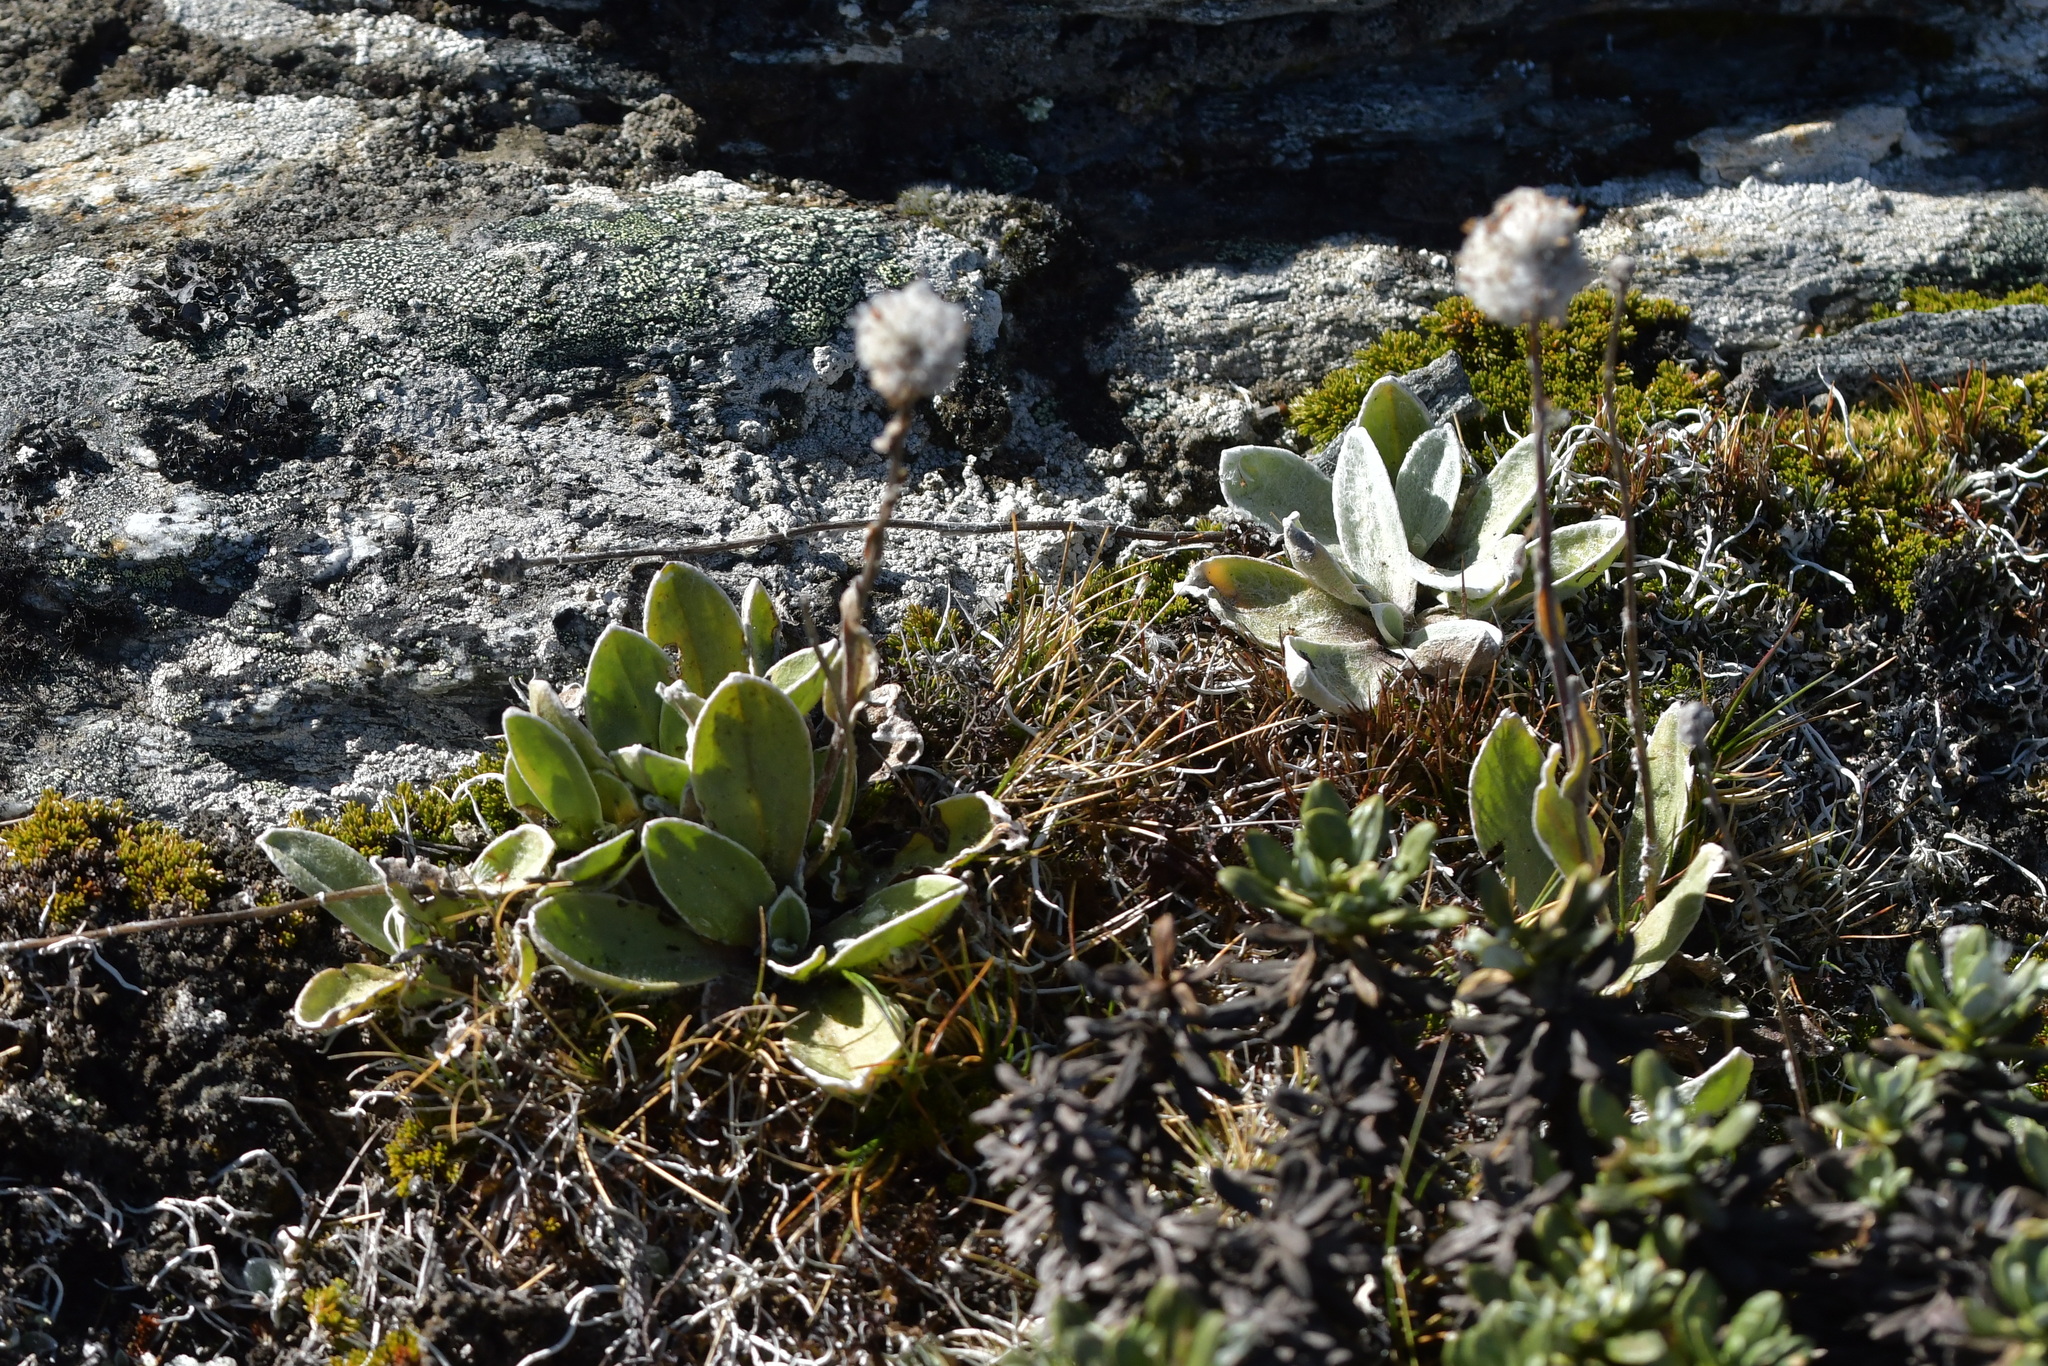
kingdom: Plantae
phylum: Tracheophyta
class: Magnoliopsida
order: Asterales
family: Asteraceae
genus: Craspedia
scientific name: Craspedia lanata
